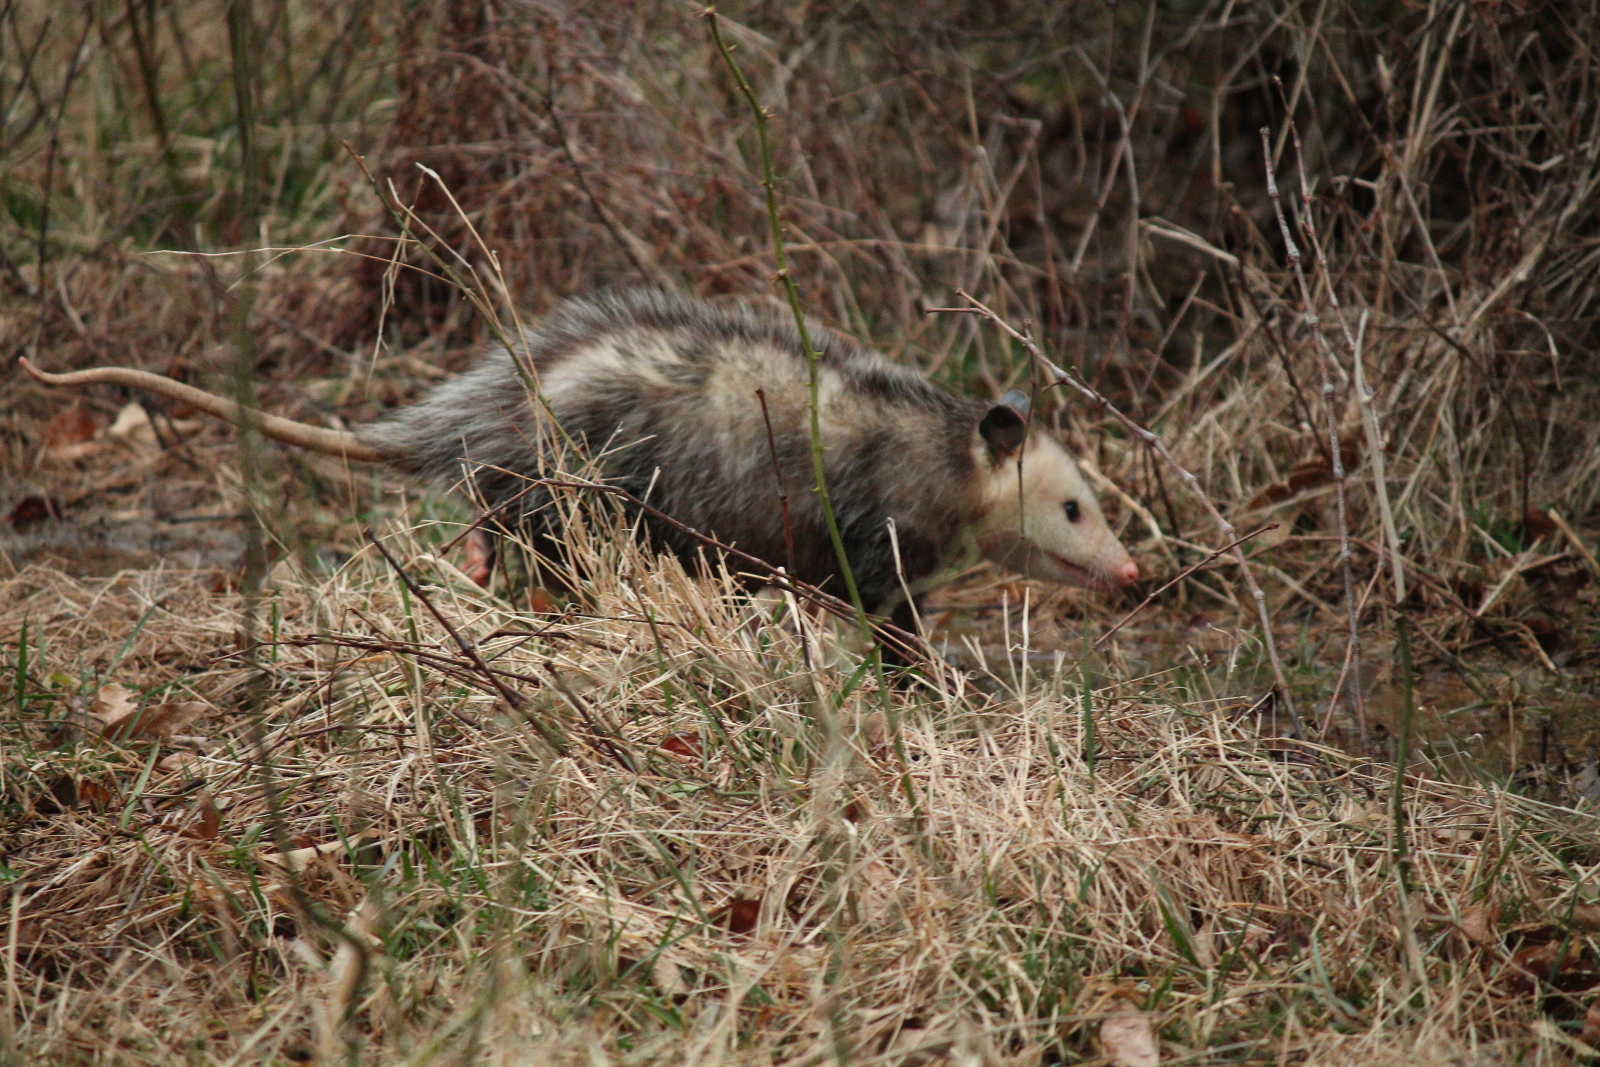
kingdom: Animalia
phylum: Chordata
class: Mammalia
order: Didelphimorphia
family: Didelphidae
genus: Didelphis
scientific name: Didelphis virginiana
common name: Virginia opossum
